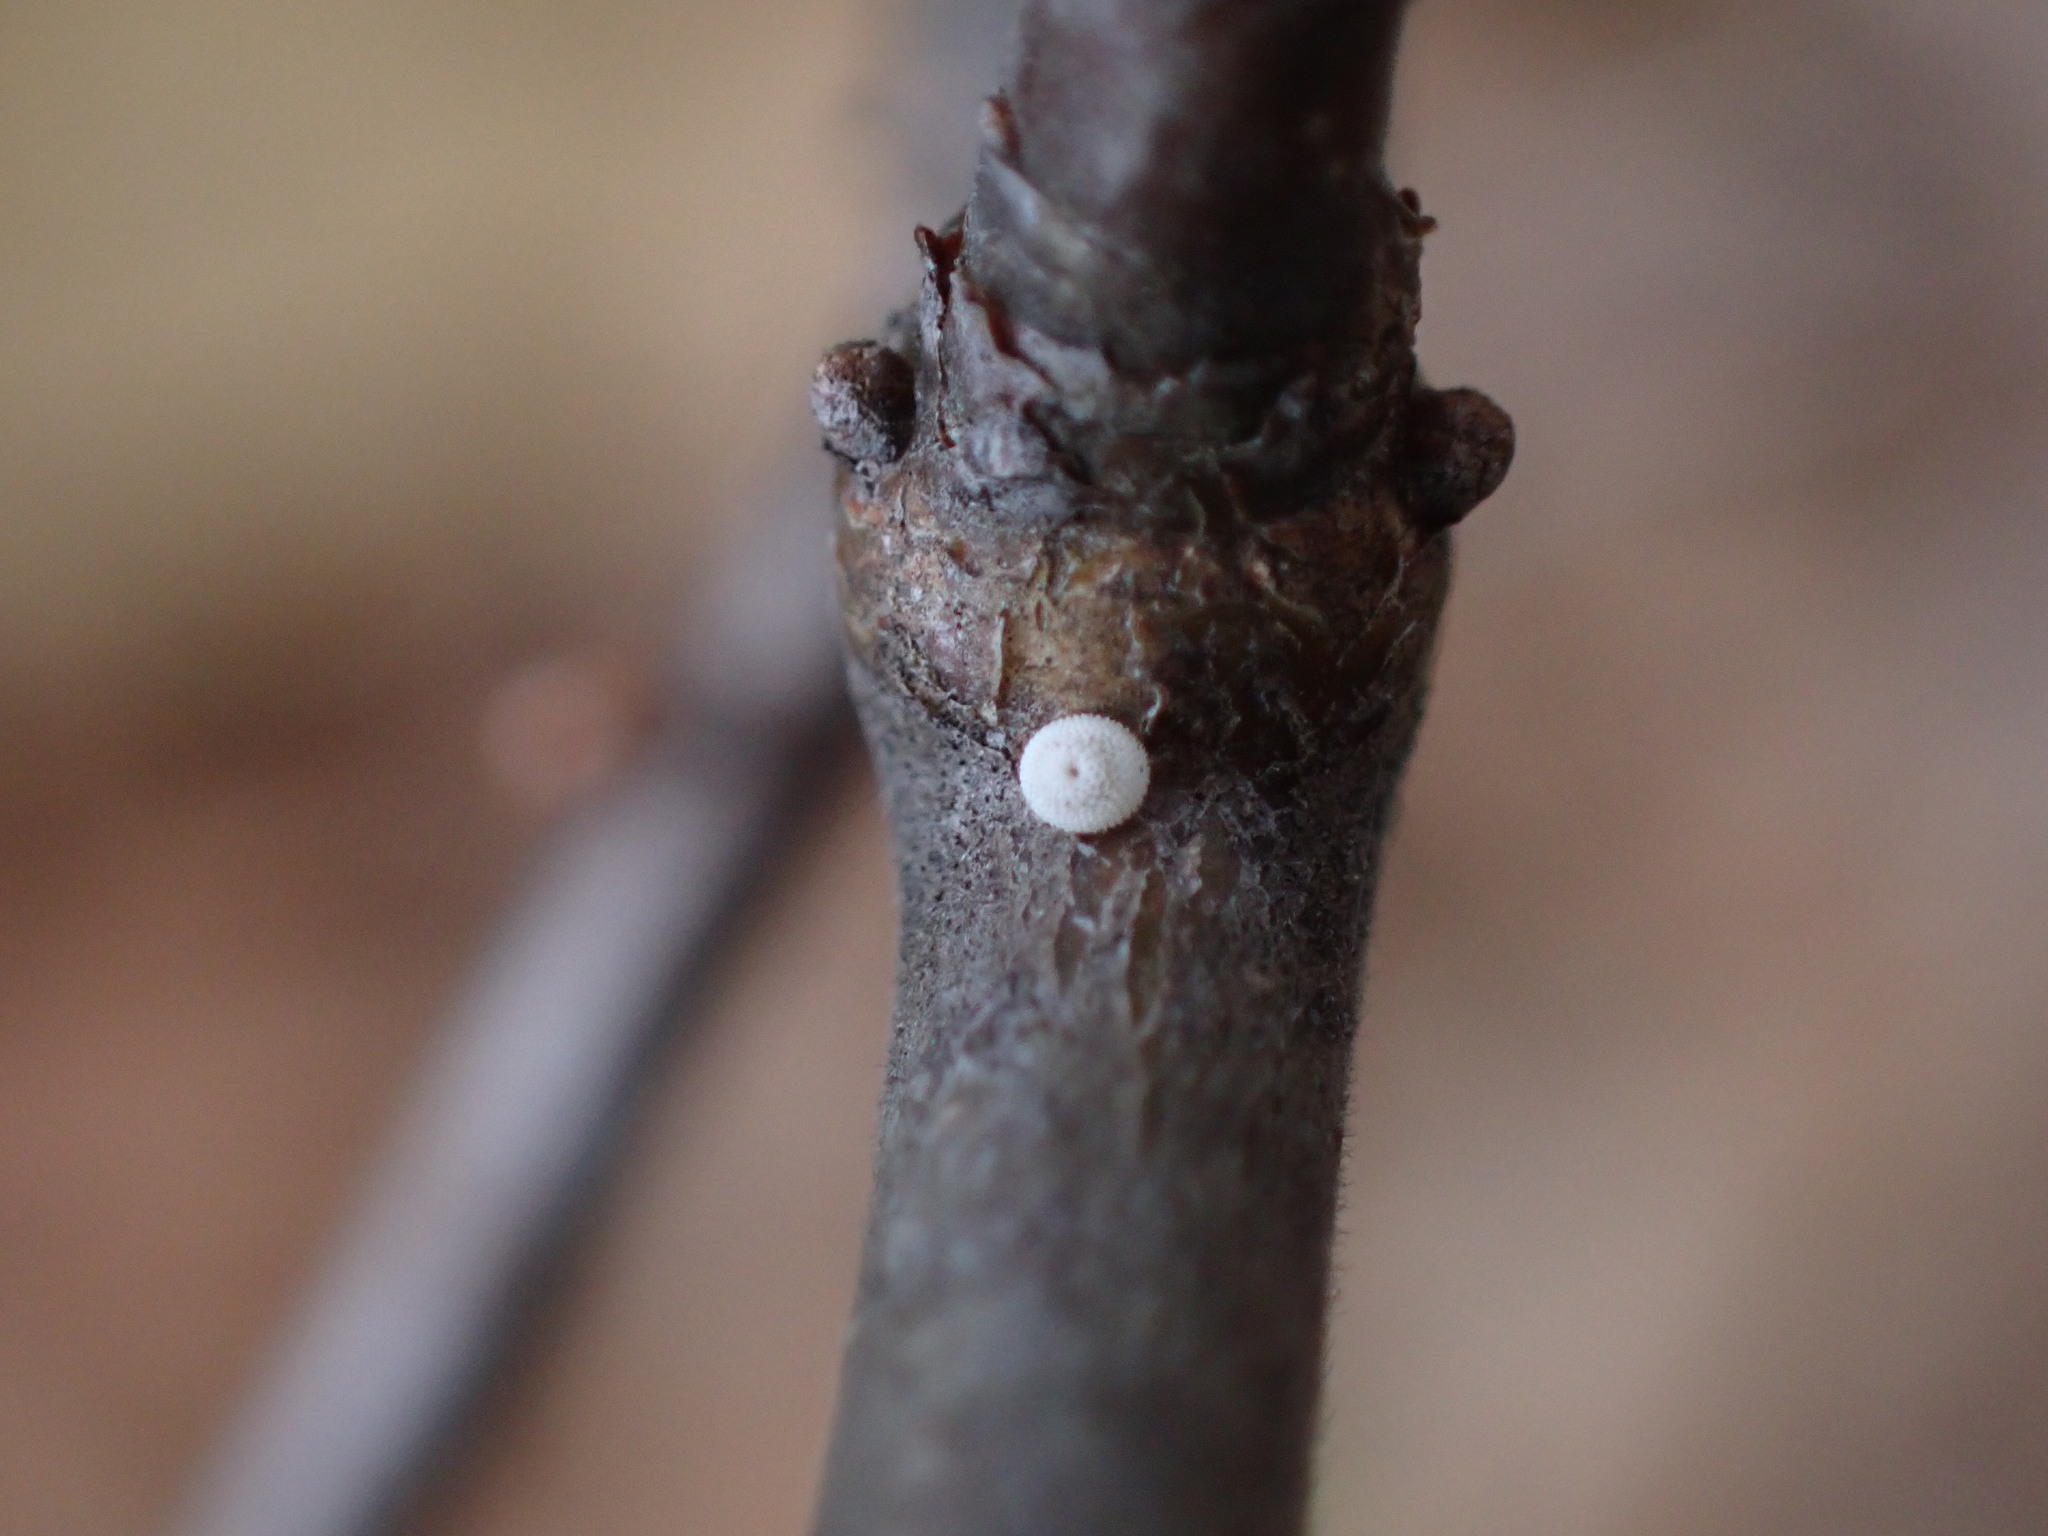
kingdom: Animalia
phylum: Arthropoda
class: Insecta
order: Lepidoptera
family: Lycaenidae
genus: Thecla
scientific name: Thecla betulae
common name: Brown hairstreak
